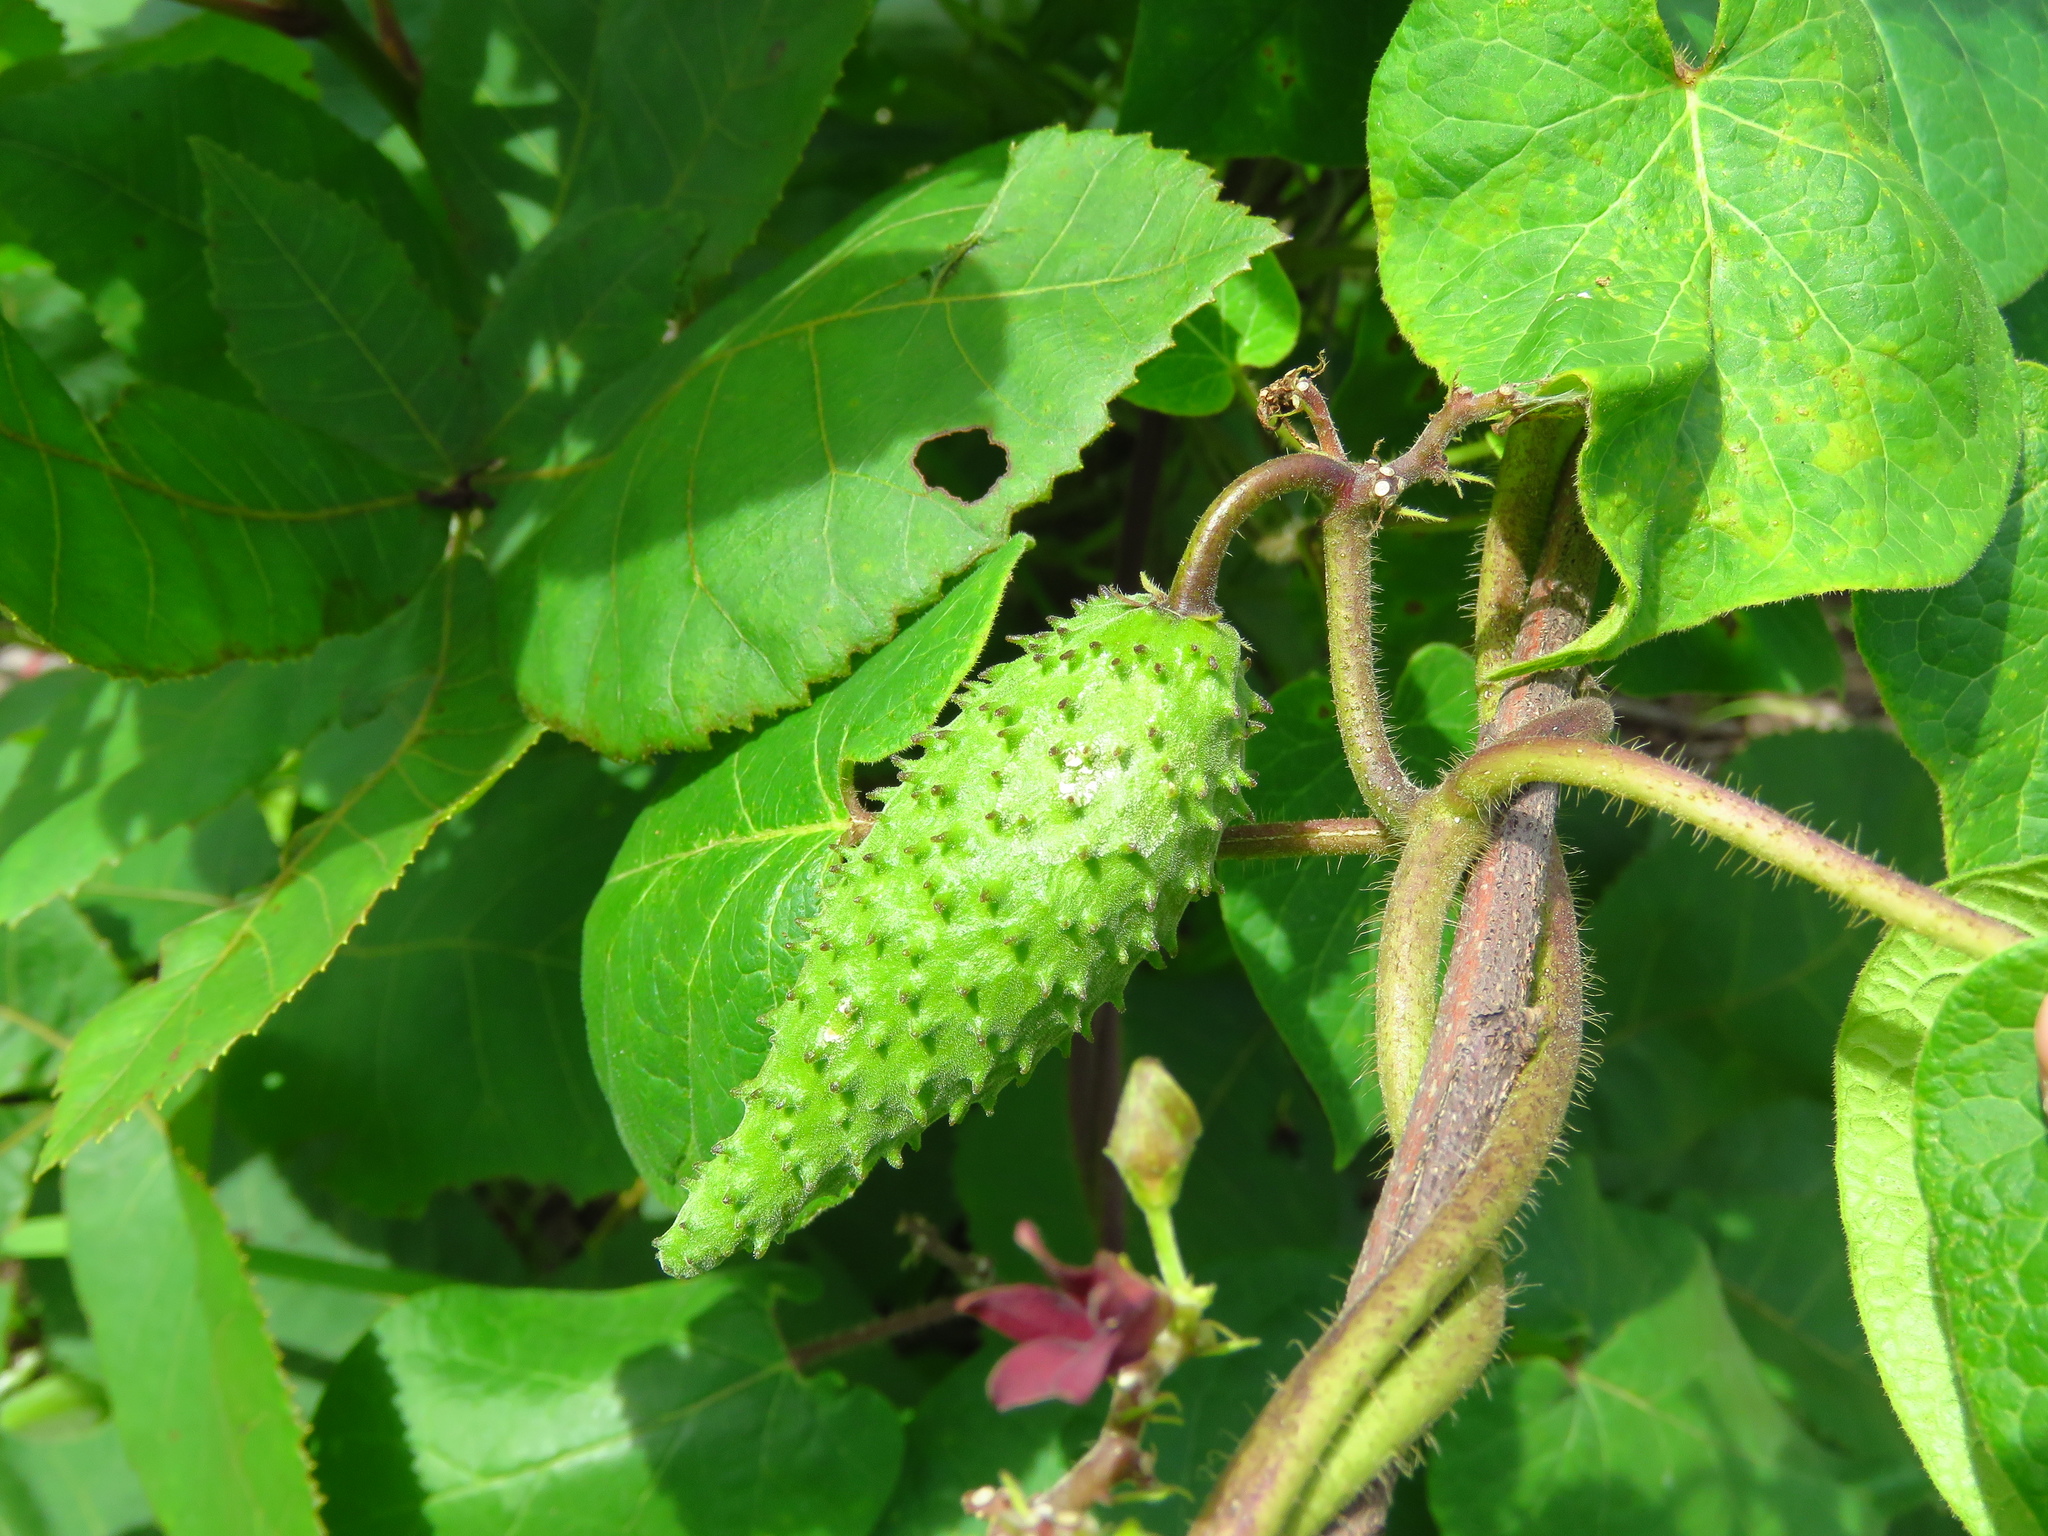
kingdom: Plantae
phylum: Tracheophyta
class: Magnoliopsida
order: Gentianales
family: Apocynaceae
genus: Matelea
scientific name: Matelea hirtelliflora
